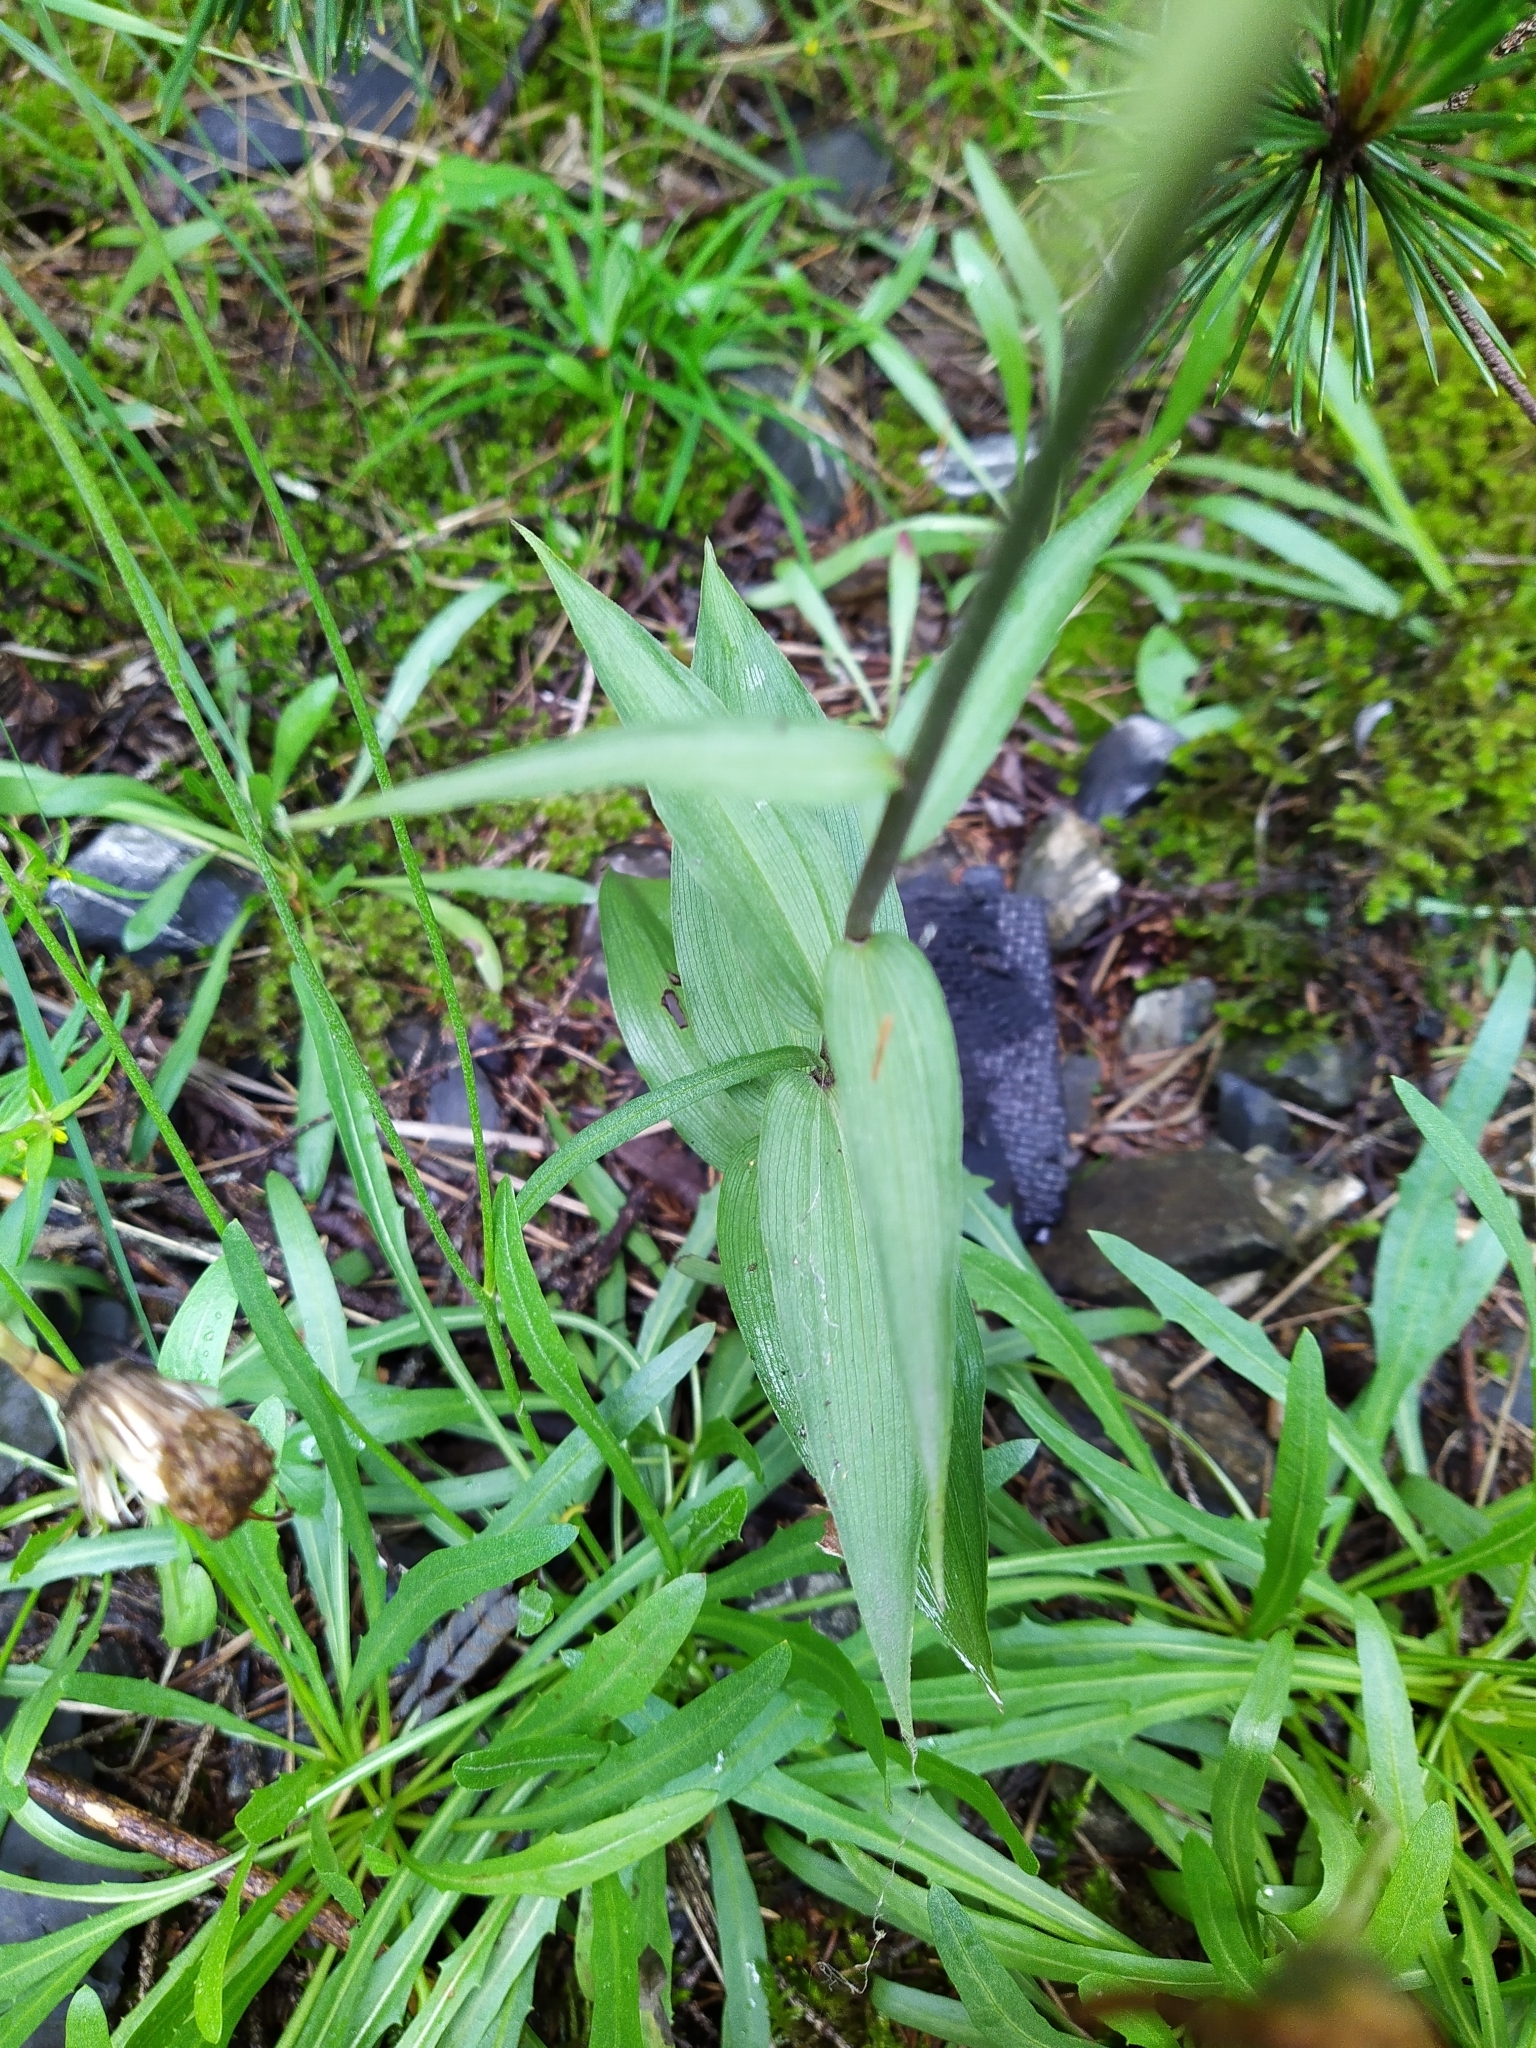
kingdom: Plantae
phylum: Tracheophyta
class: Liliopsida
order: Asparagales
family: Orchidaceae
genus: Epipactis
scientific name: Epipactis atrorubens
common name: Dark-red helleborine
